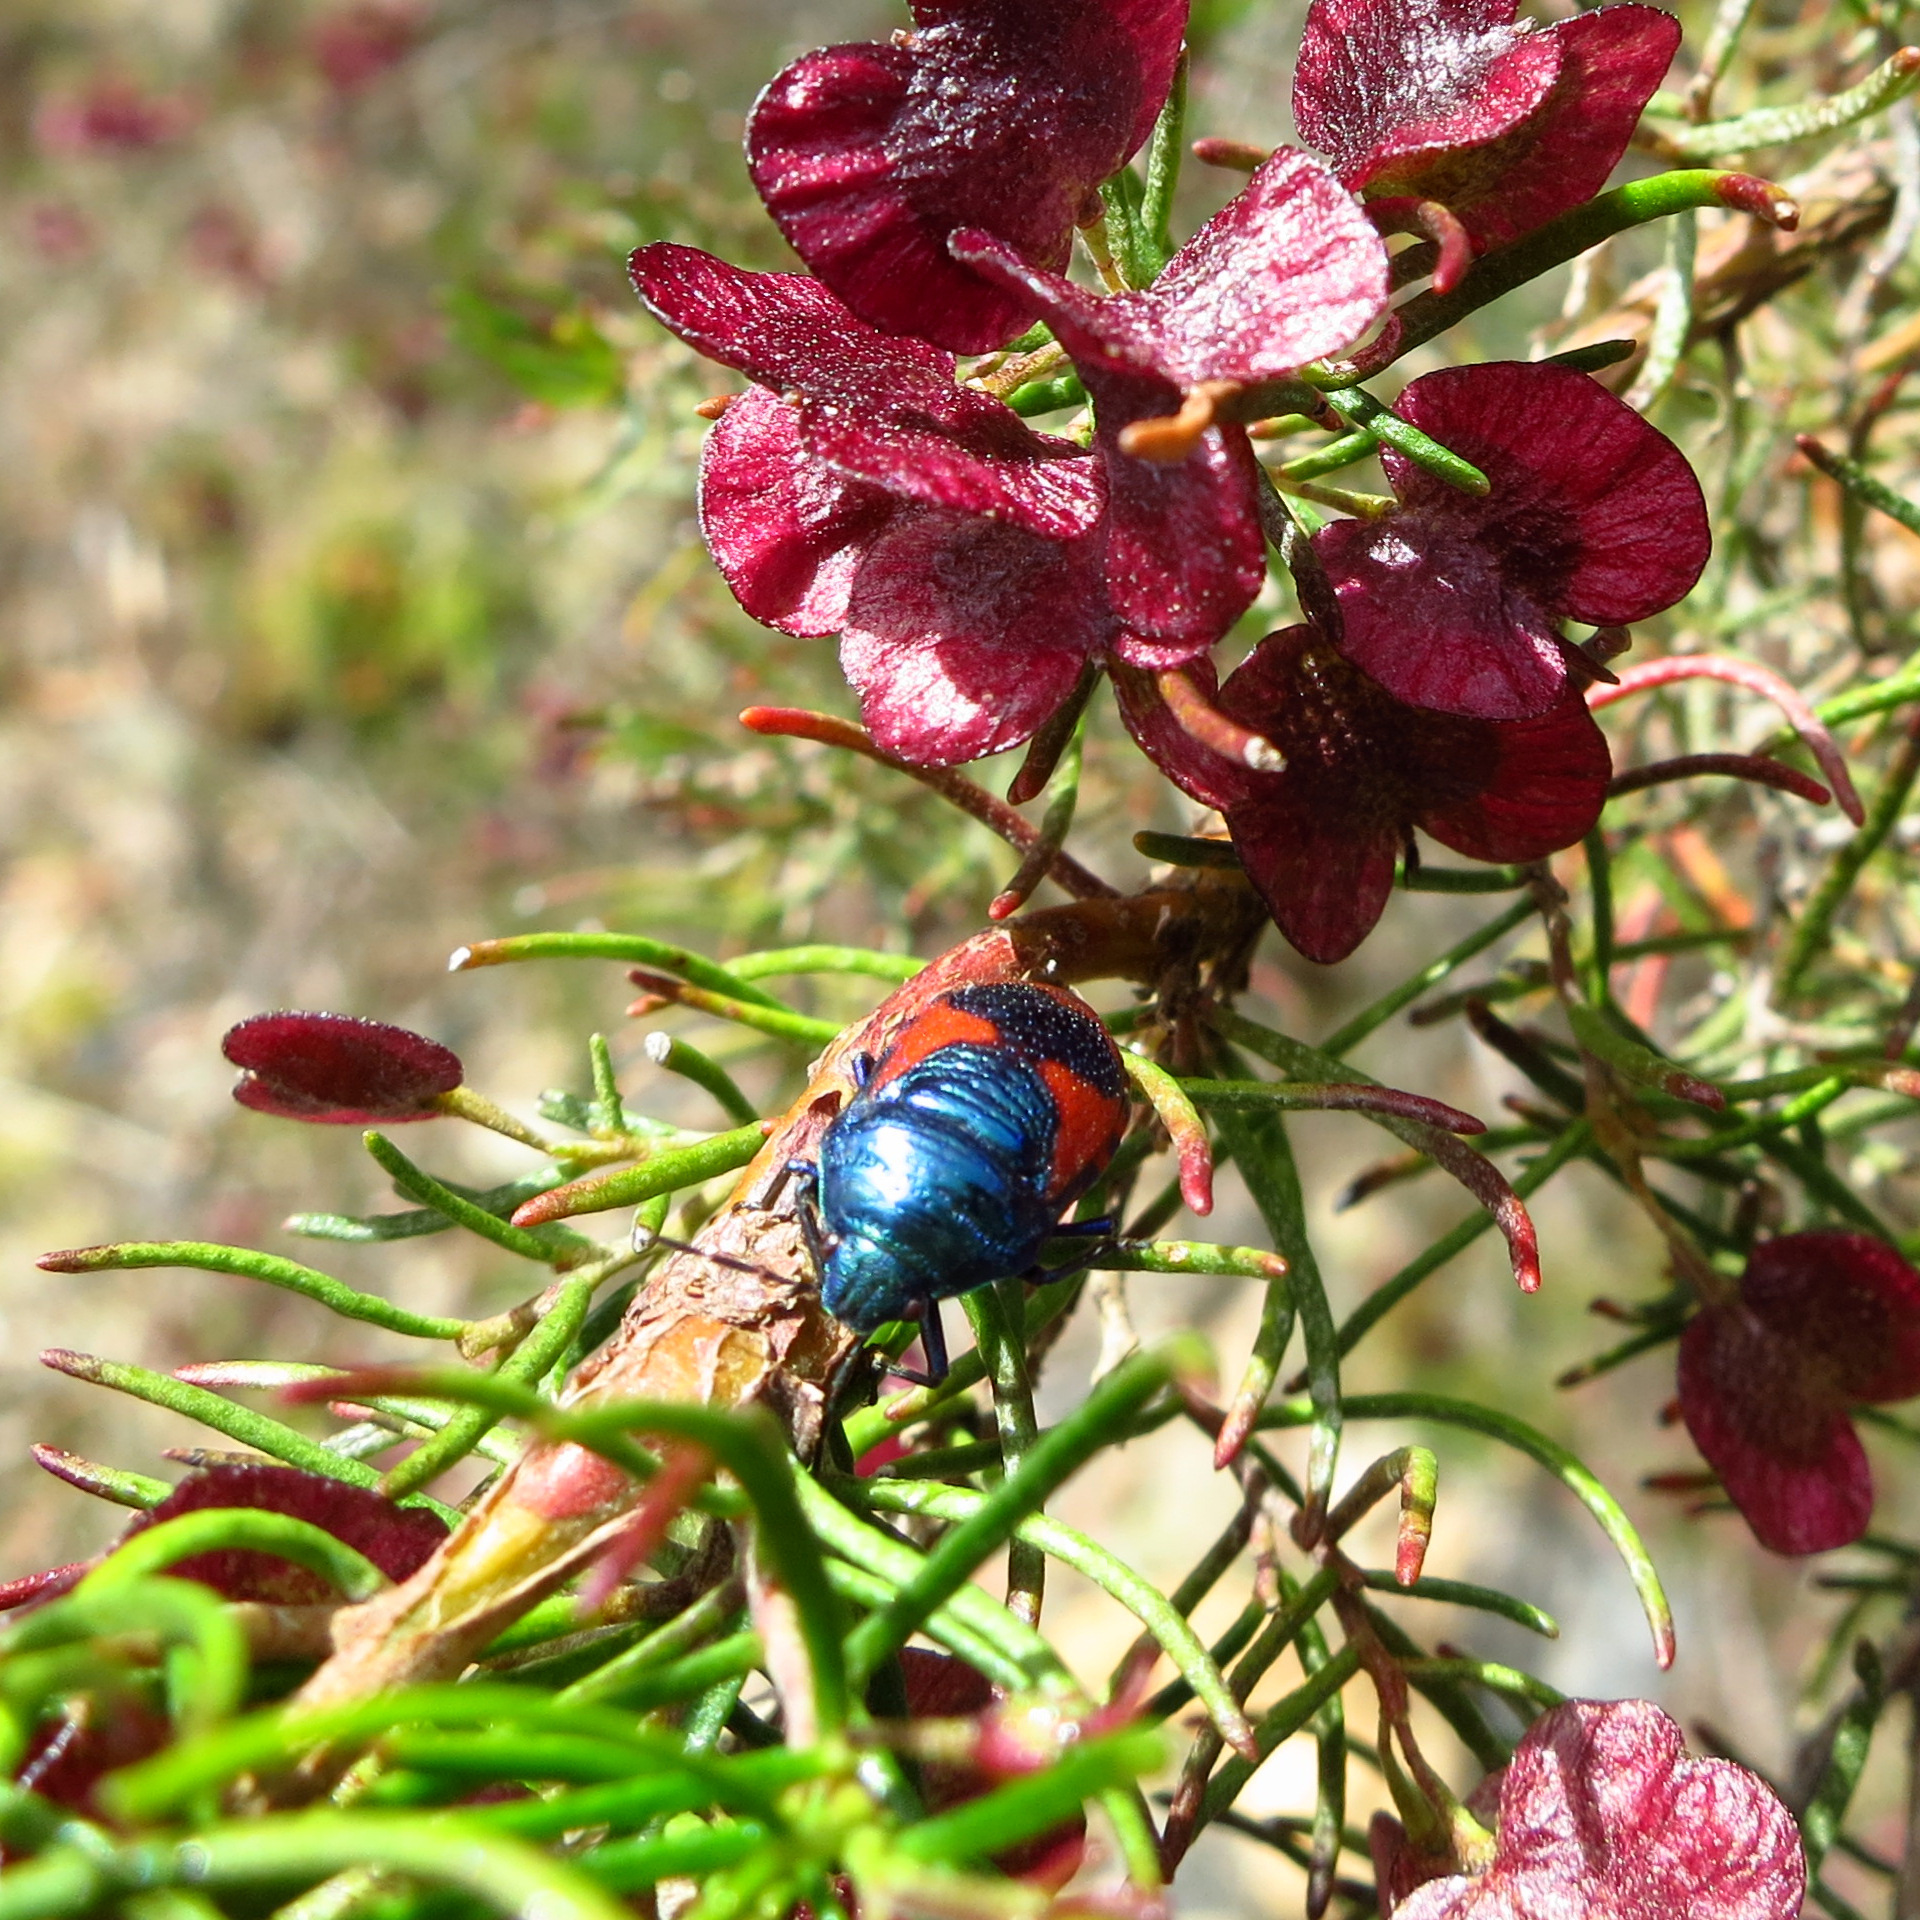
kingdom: Animalia
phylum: Arthropoda
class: Insecta
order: Hemiptera
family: Scutelleridae
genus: Choerocoris
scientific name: Choerocoris paganus
